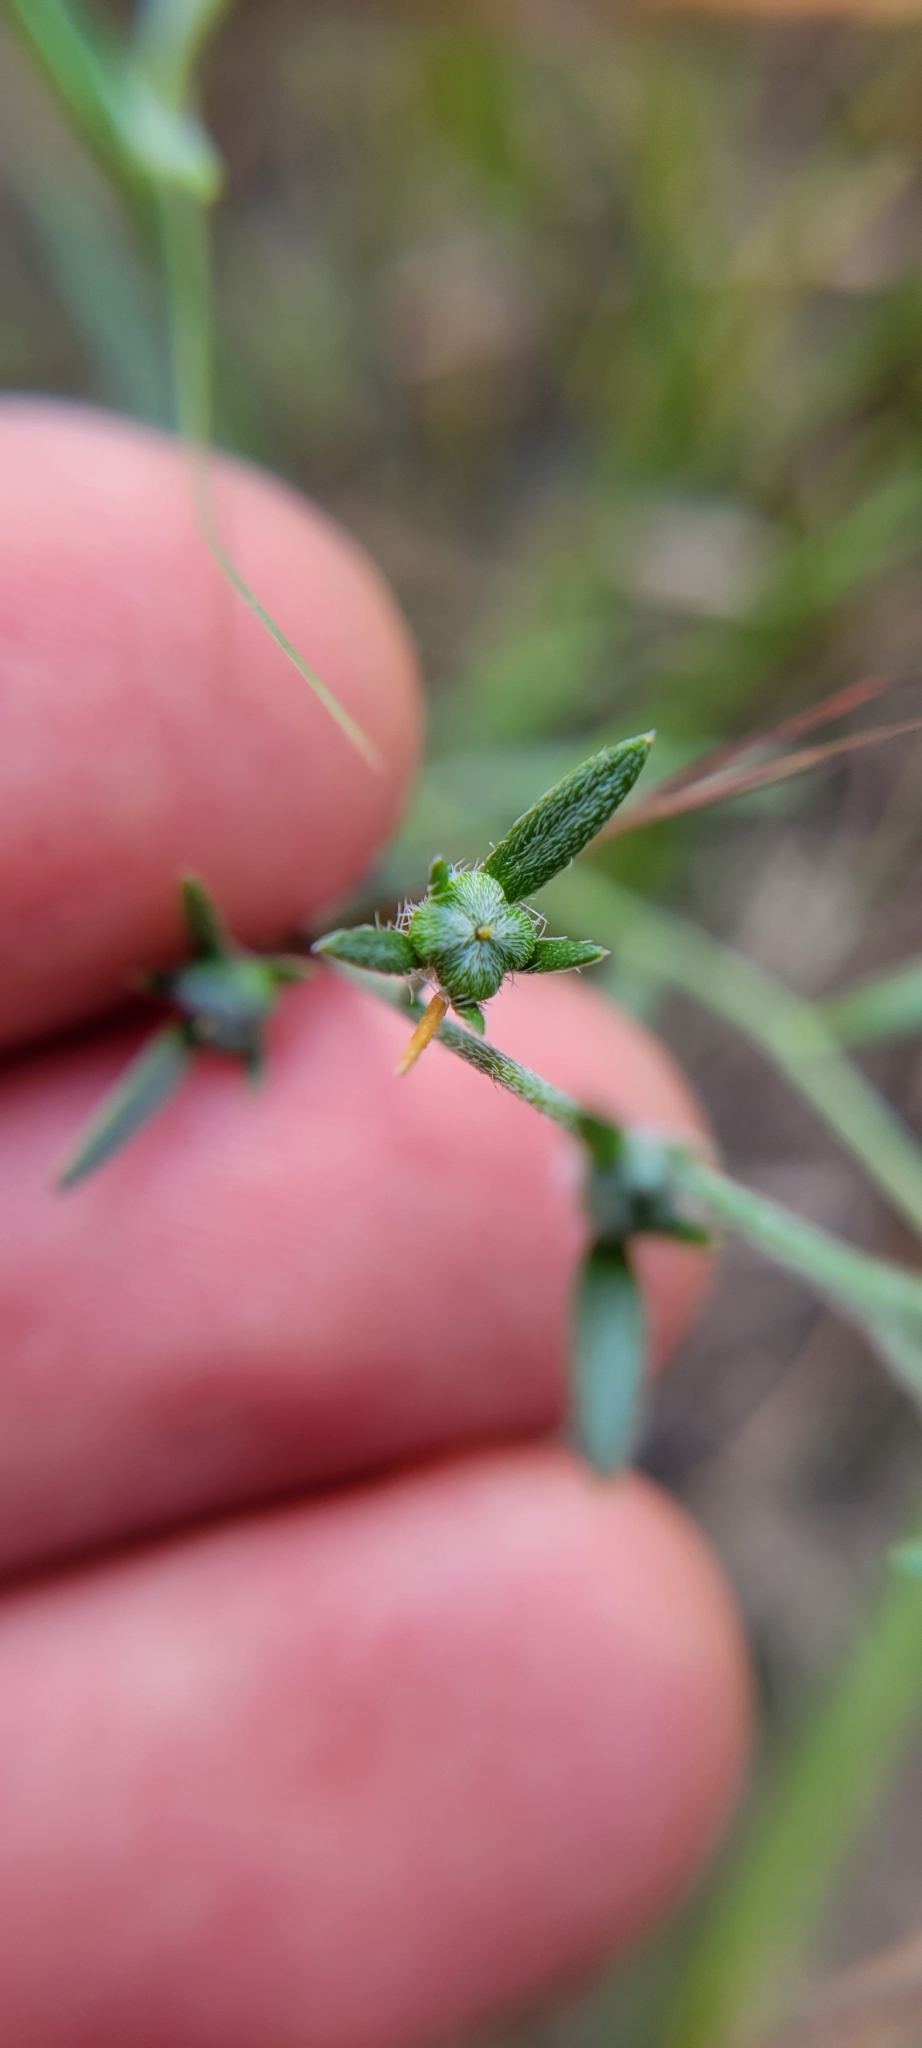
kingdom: Plantae
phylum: Tracheophyta
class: Magnoliopsida
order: Boraginales
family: Heliotropiaceae
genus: Euploca
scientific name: Euploca tenella
